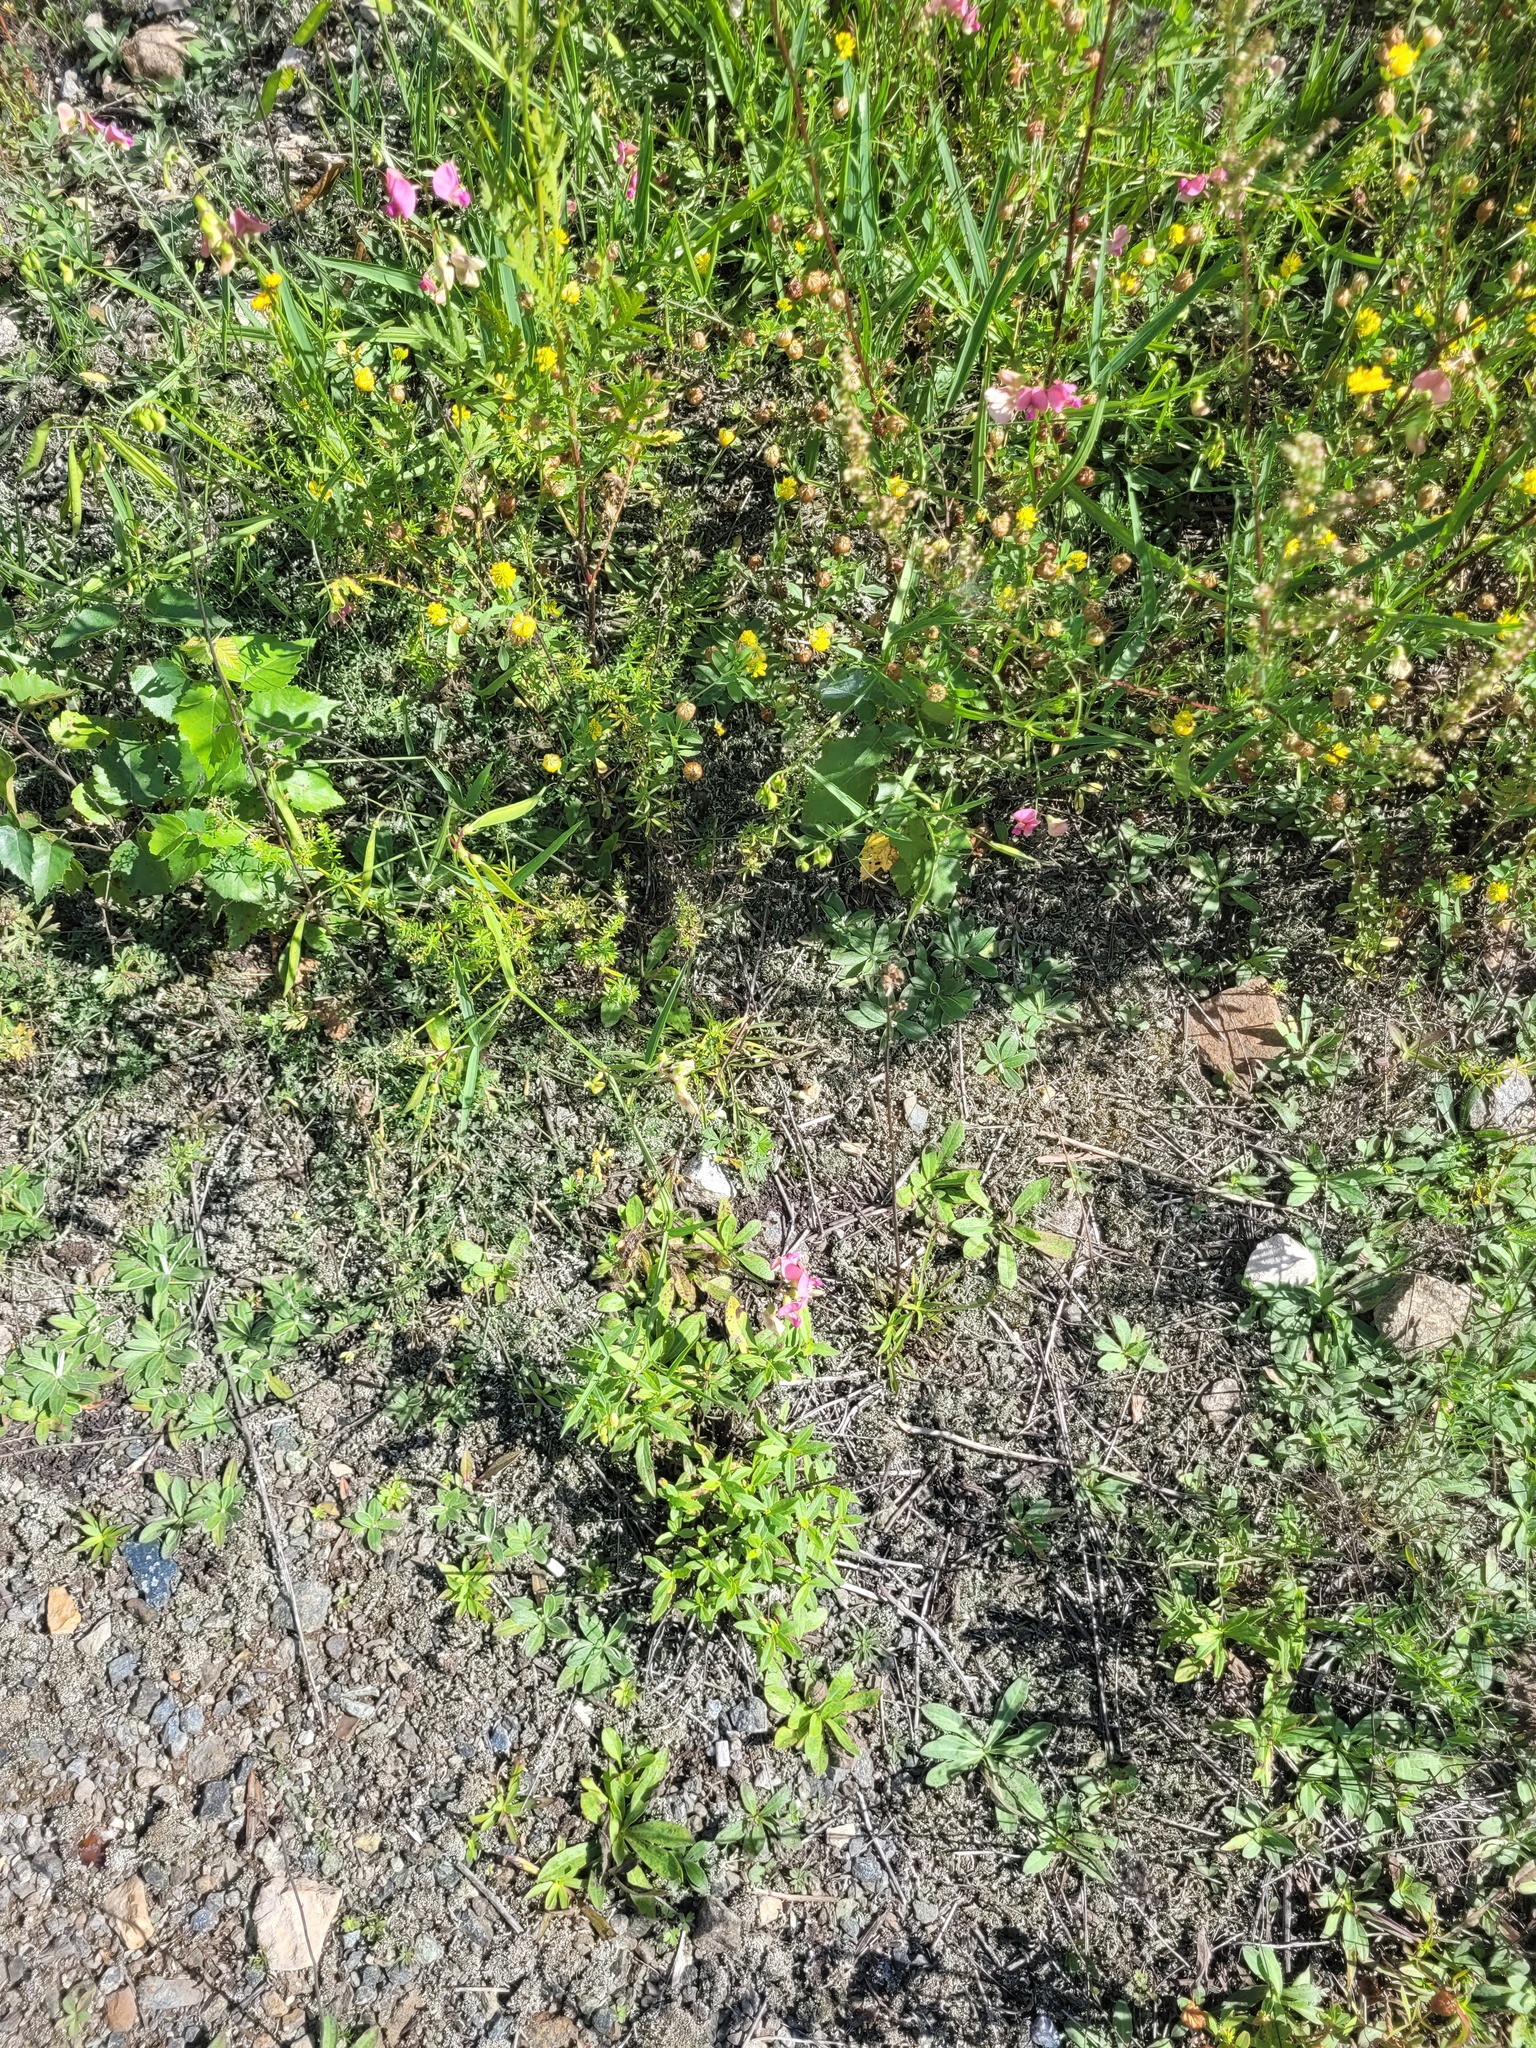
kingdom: Plantae
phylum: Tracheophyta
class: Magnoliopsida
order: Fabales
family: Fabaceae
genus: Lathyrus
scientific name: Lathyrus sylvestris
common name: Flat pea
